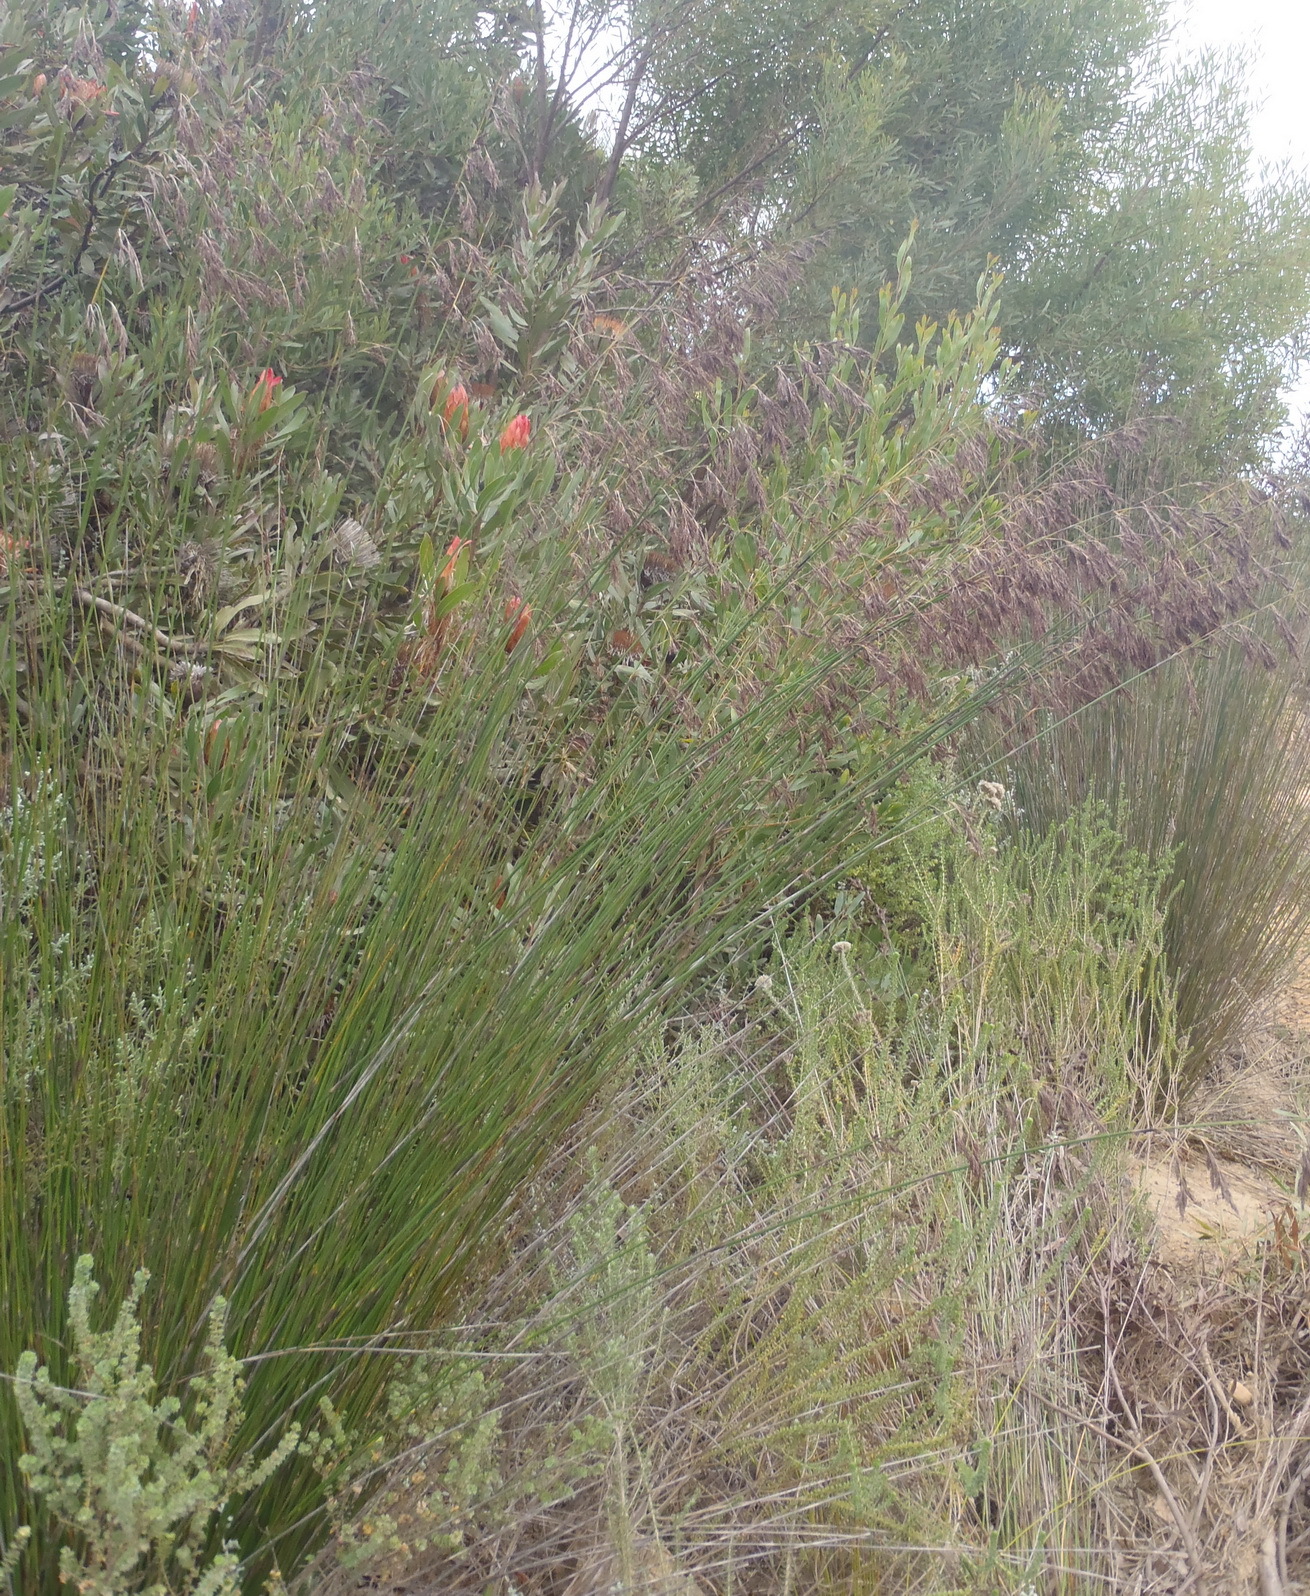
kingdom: Plantae
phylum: Tracheophyta
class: Liliopsida
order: Poales
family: Restionaceae
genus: Thamnochortus
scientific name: Thamnochortus insignis
